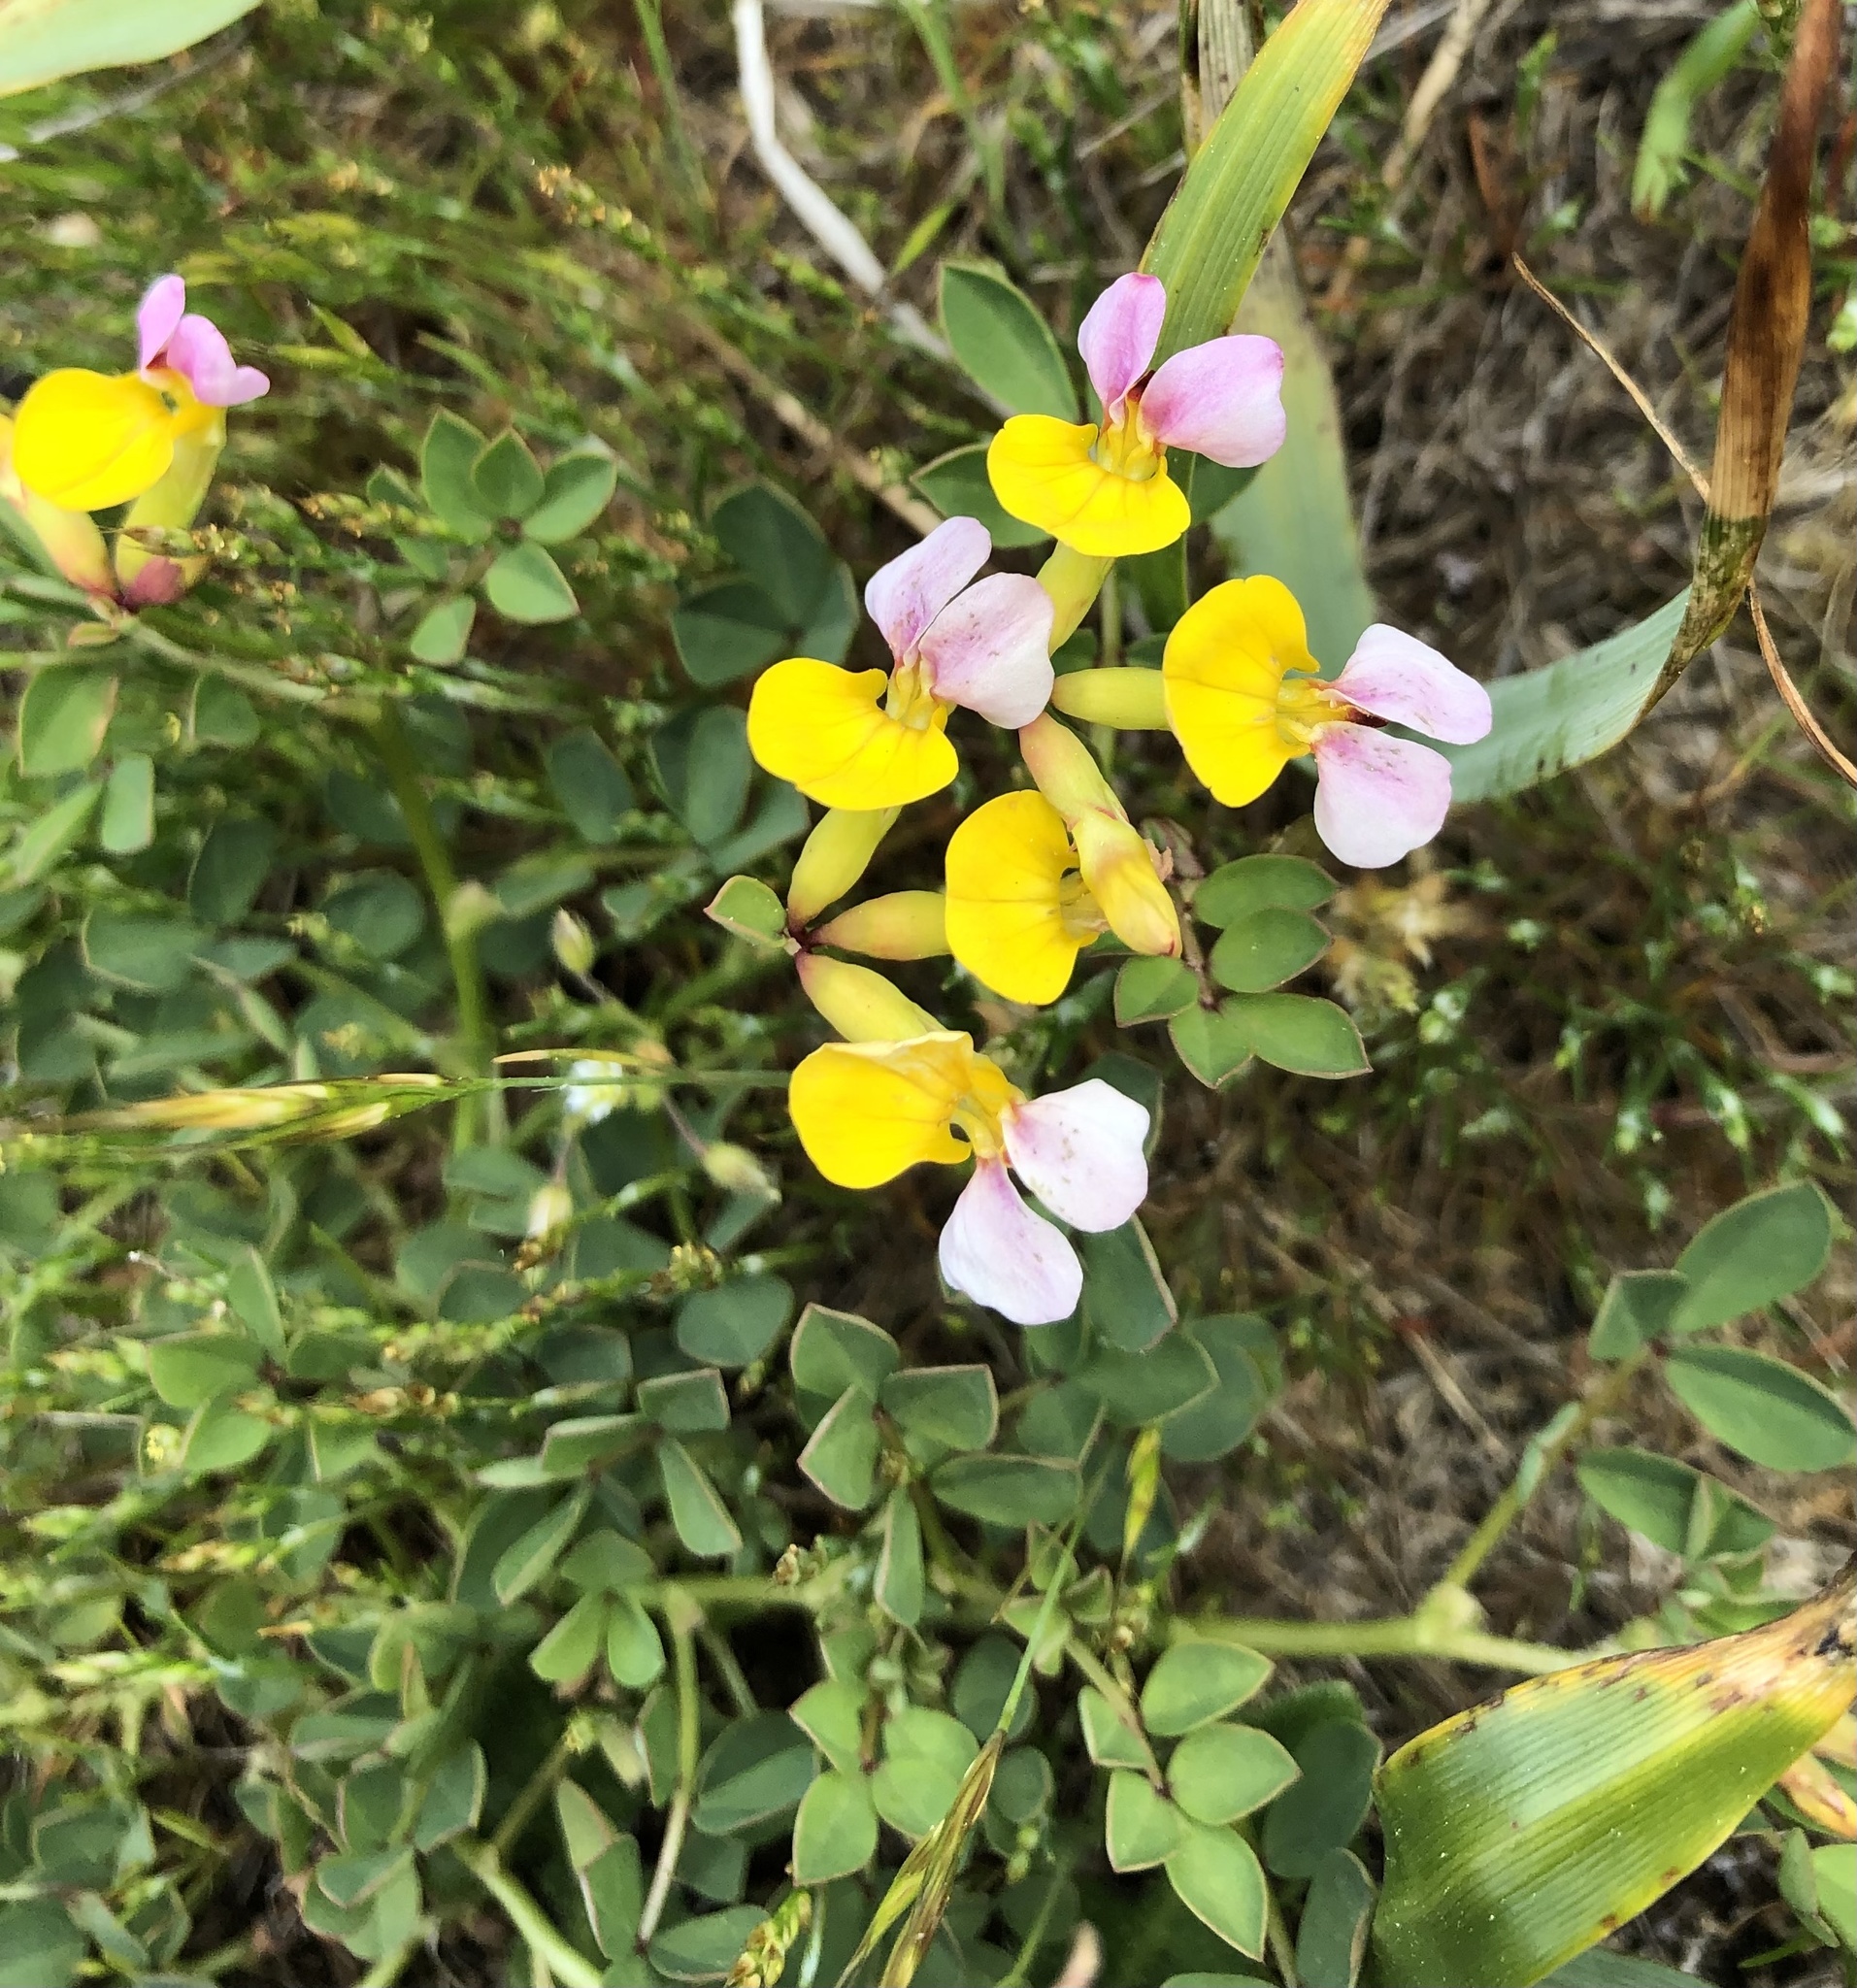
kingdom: Plantae
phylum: Tracheophyta
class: Magnoliopsida
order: Fabales
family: Fabaceae
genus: Hosackia
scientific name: Hosackia gracilis
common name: Seaside bird's-foot lotus
